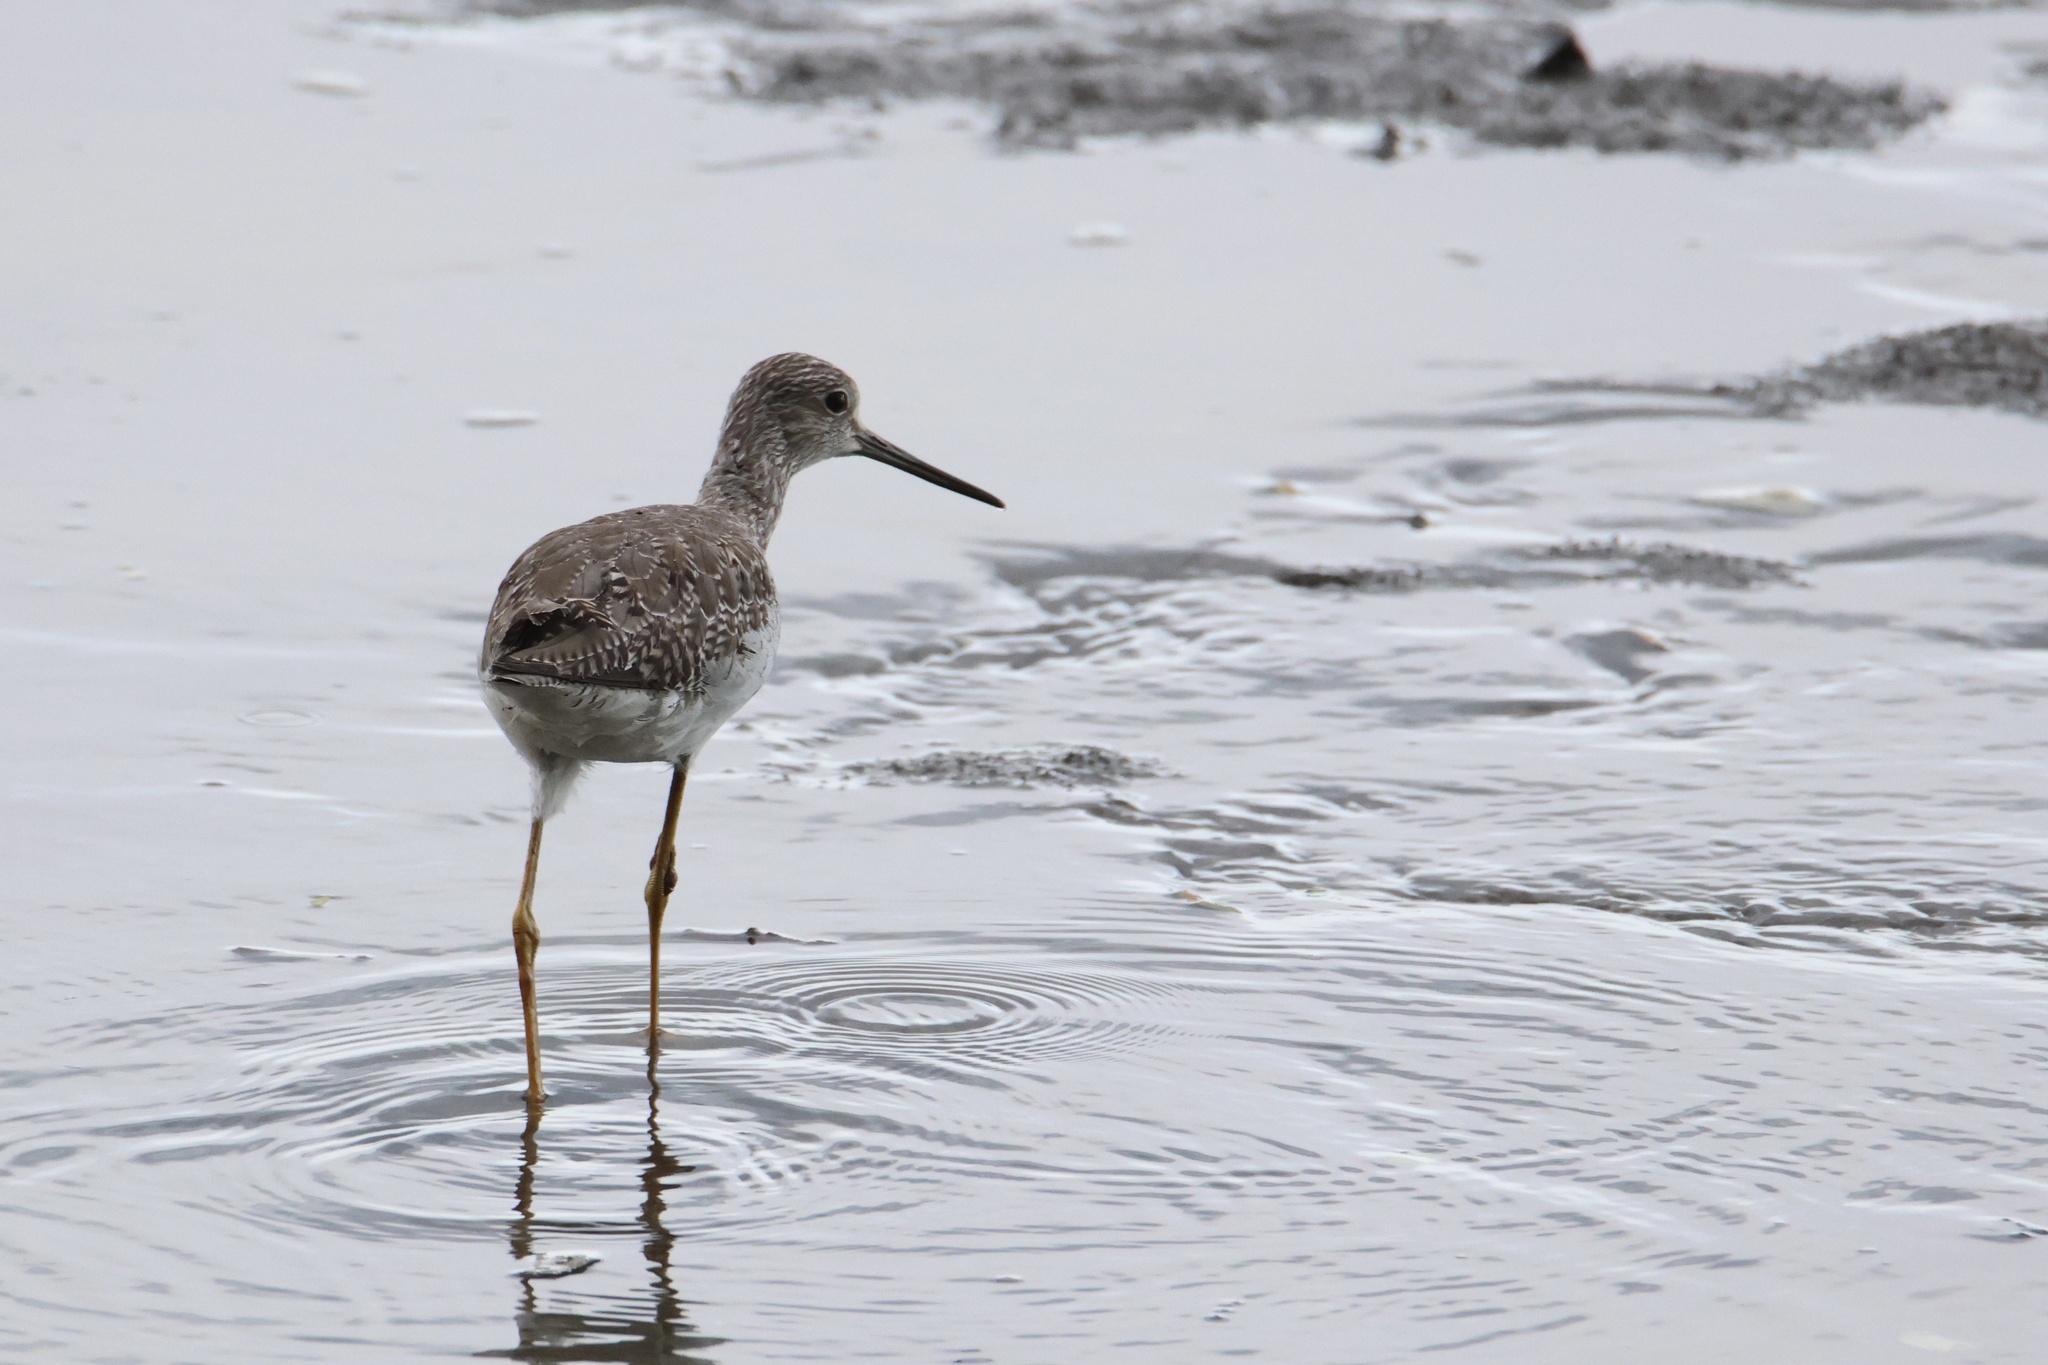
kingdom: Animalia
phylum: Chordata
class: Aves
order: Charadriiformes
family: Scolopacidae
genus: Tringa
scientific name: Tringa melanoleuca
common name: Greater yellowlegs
